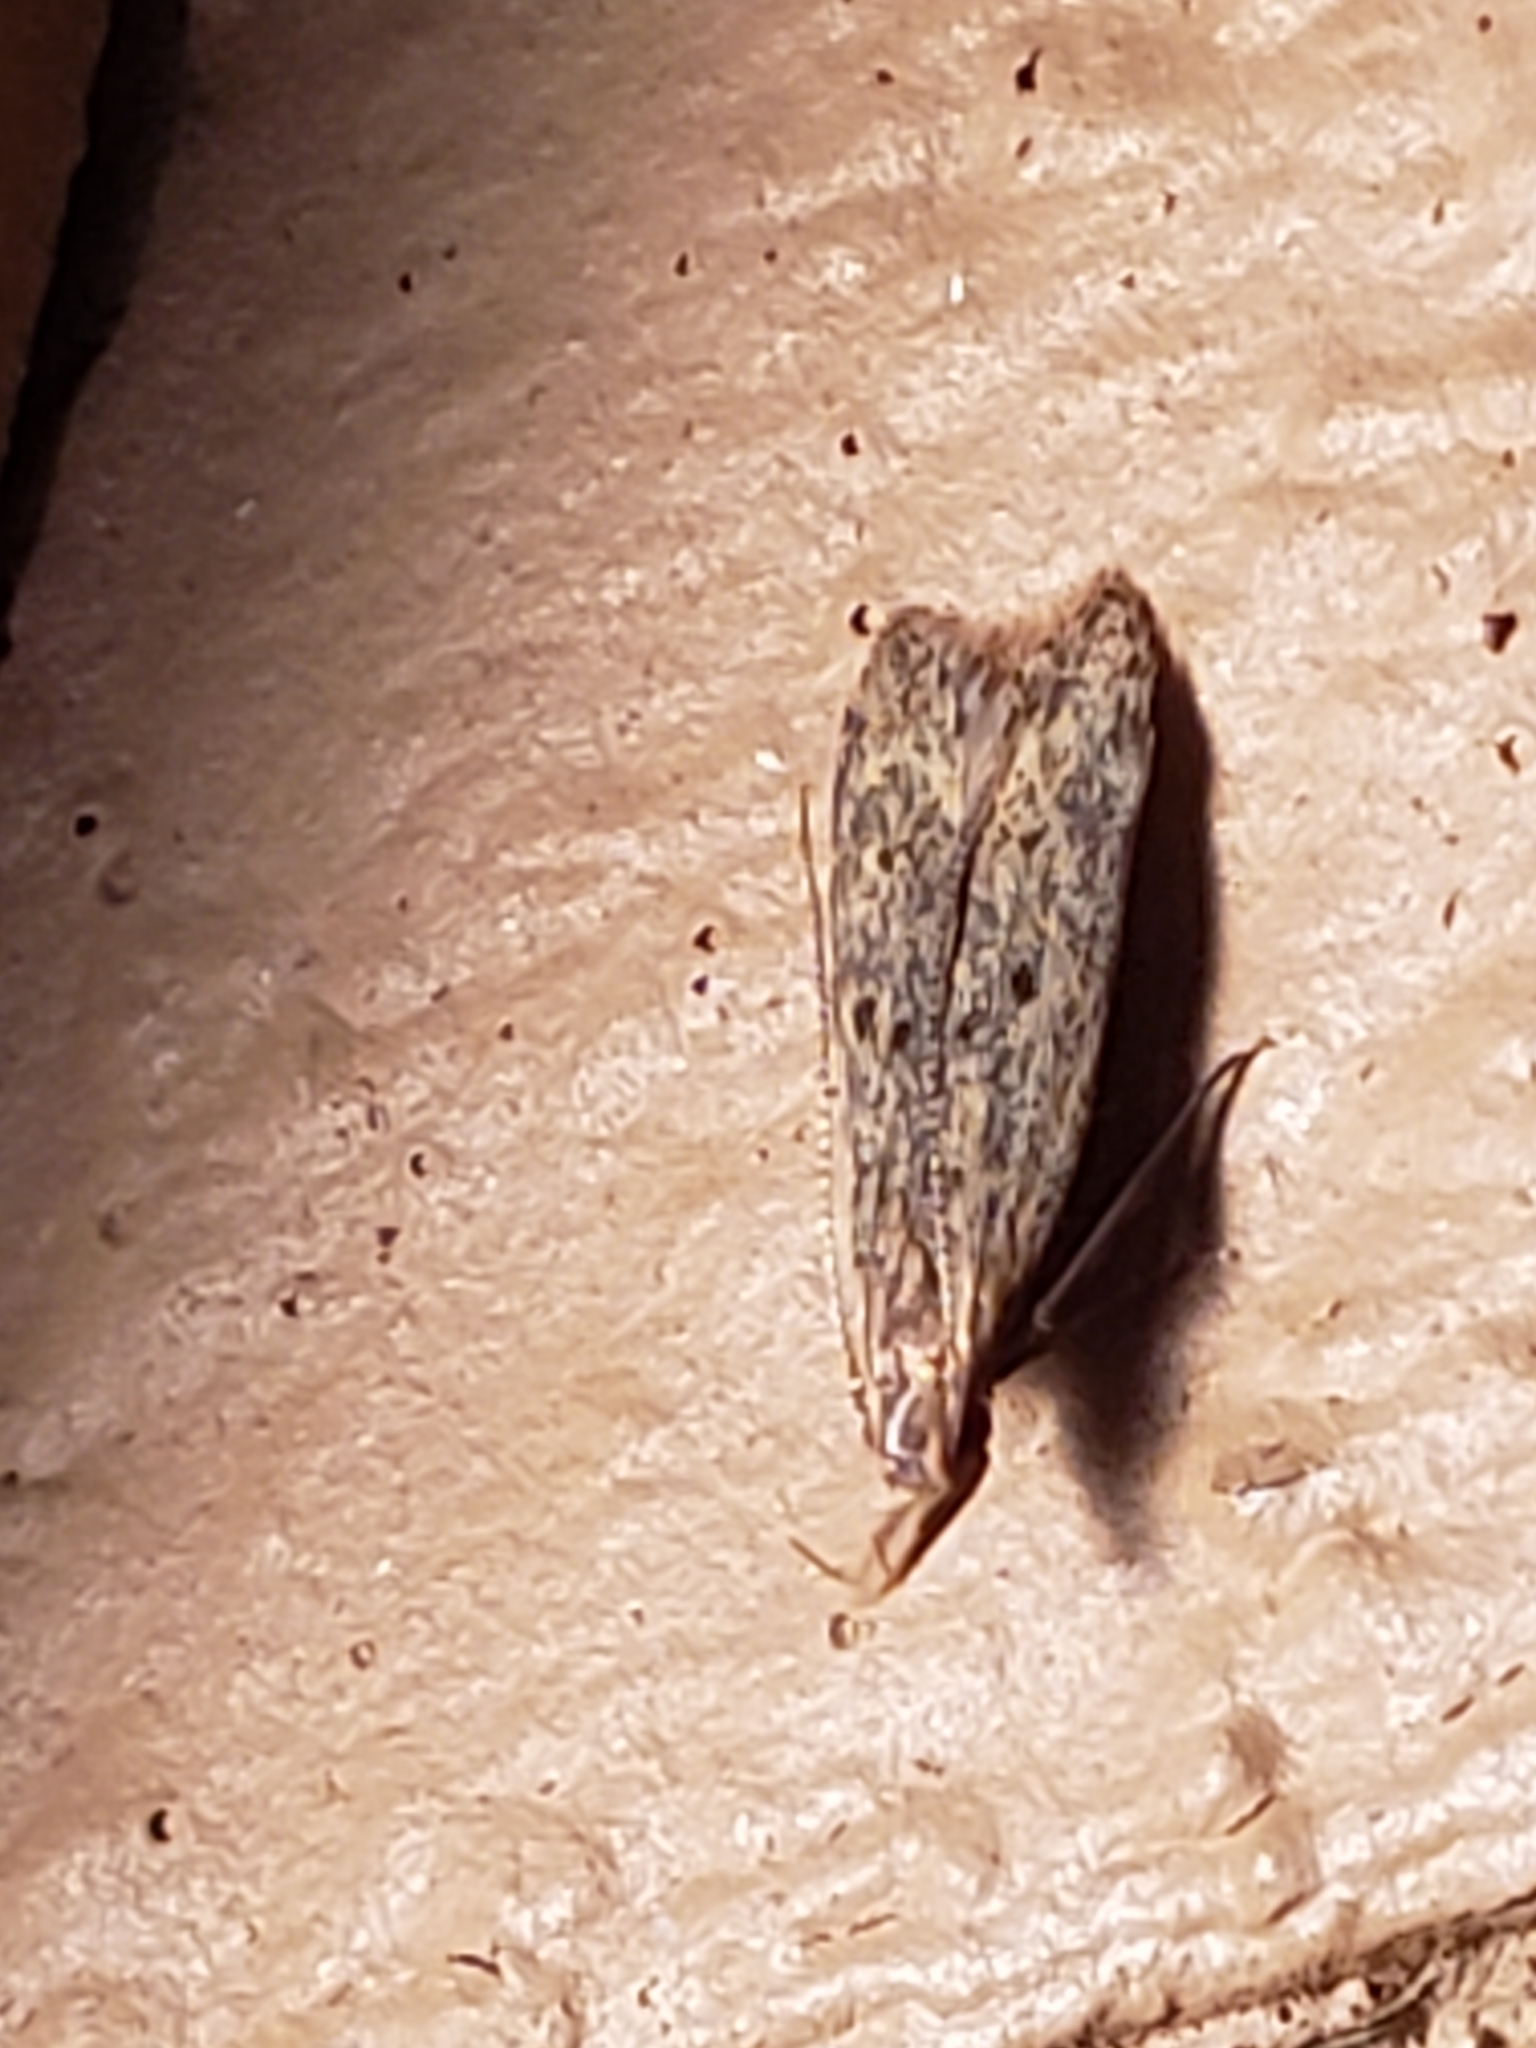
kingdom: Animalia
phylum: Arthropoda
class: Insecta
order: Lepidoptera
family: Gelechiidae
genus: Dichomeris
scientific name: Dichomeris punctipennella
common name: Many-spotted dichomeris moth
